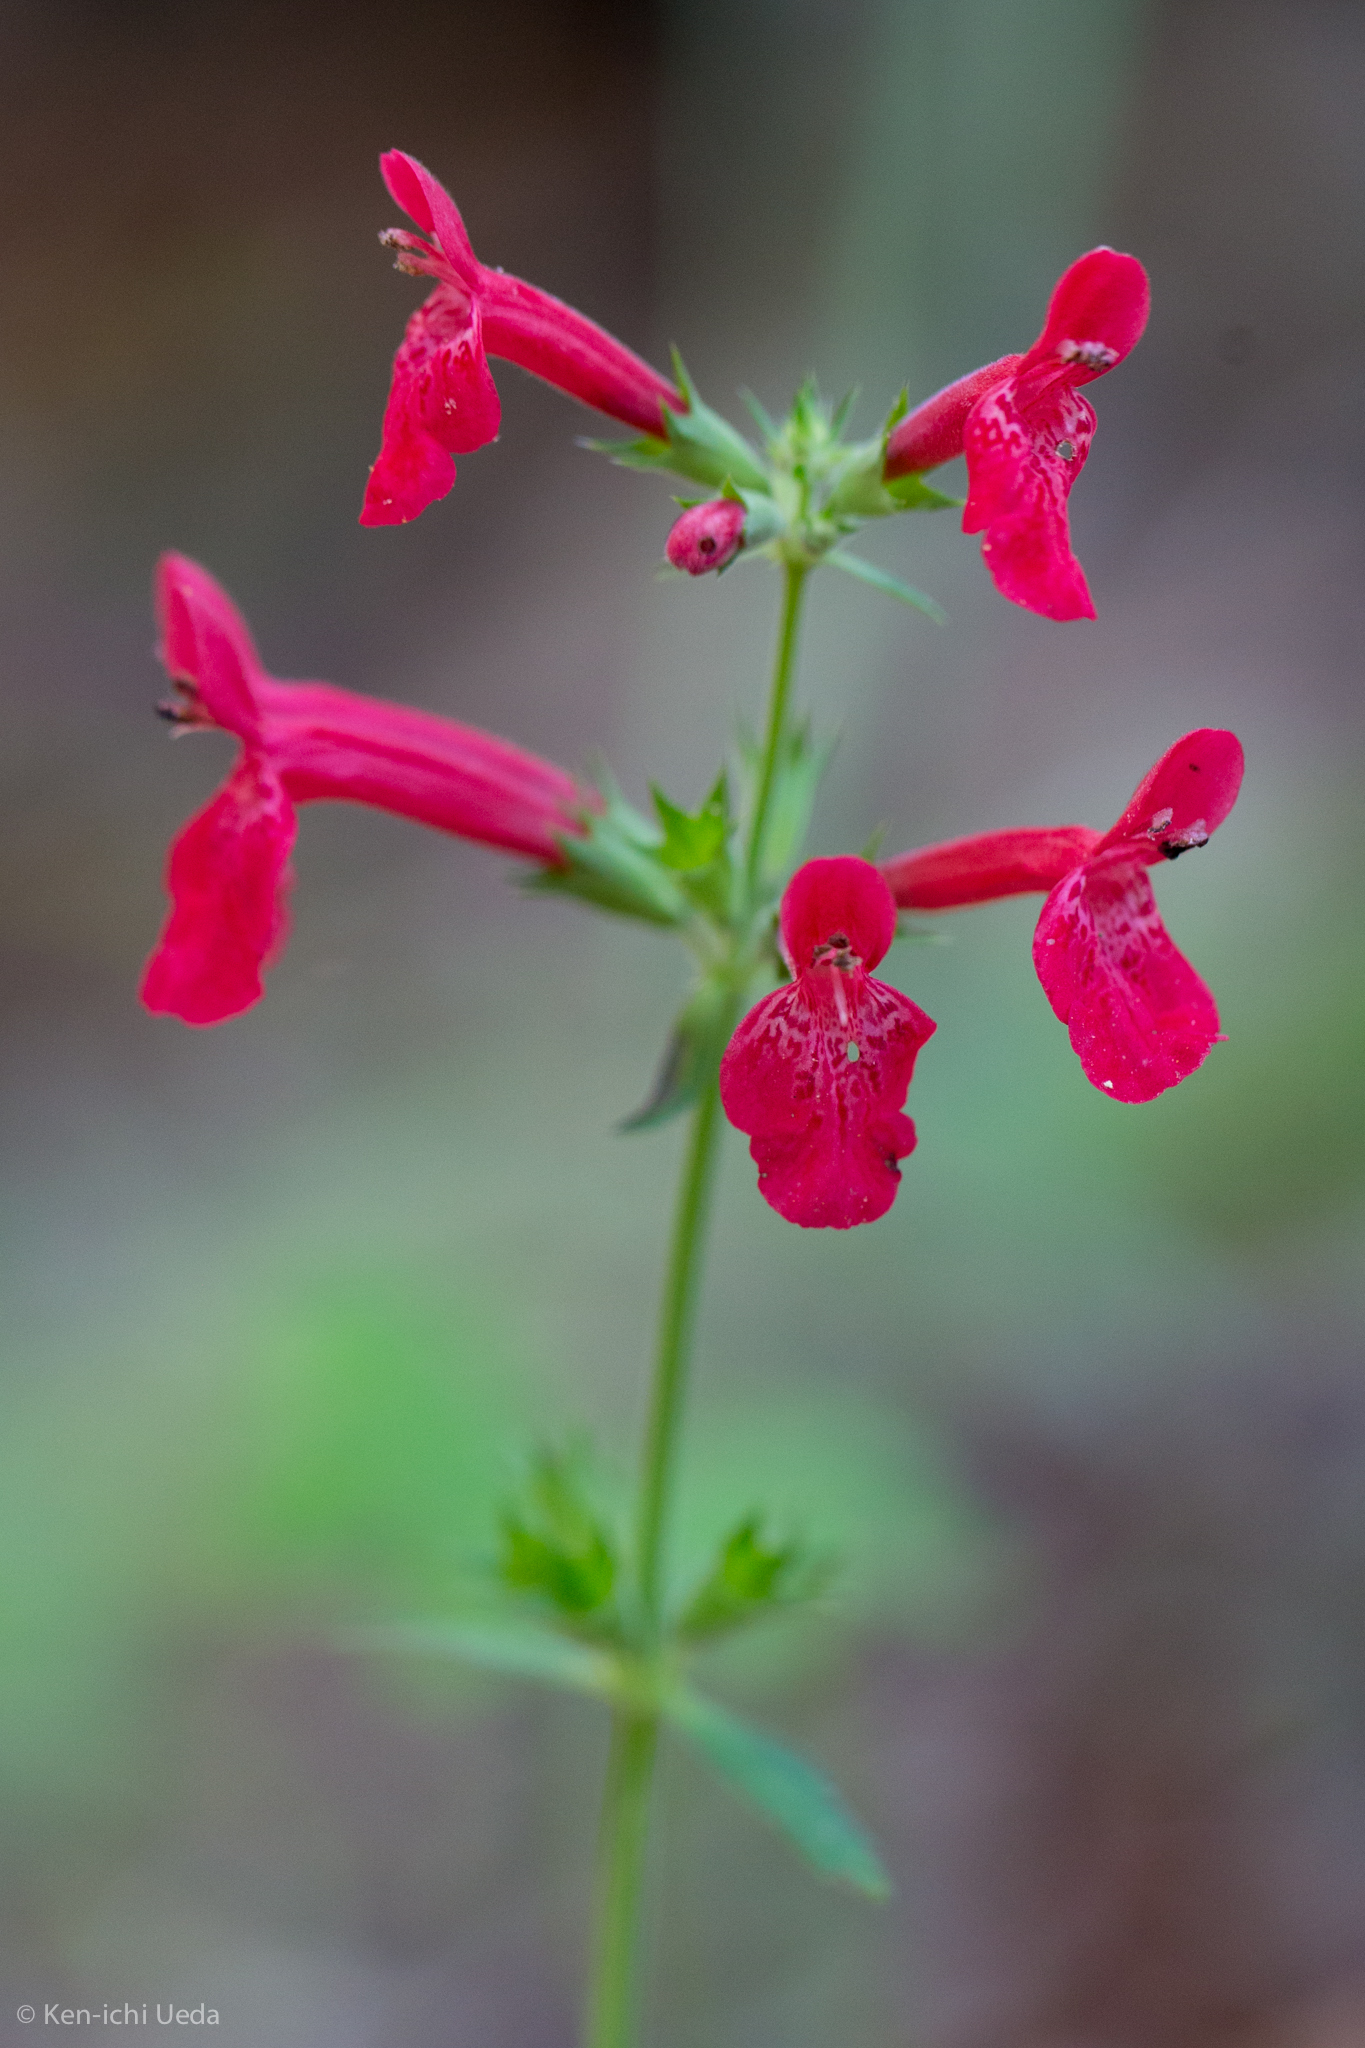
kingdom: Plantae
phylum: Tracheophyta
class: Magnoliopsida
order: Lamiales
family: Lamiaceae
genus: Stachys
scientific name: Stachys coccinea
